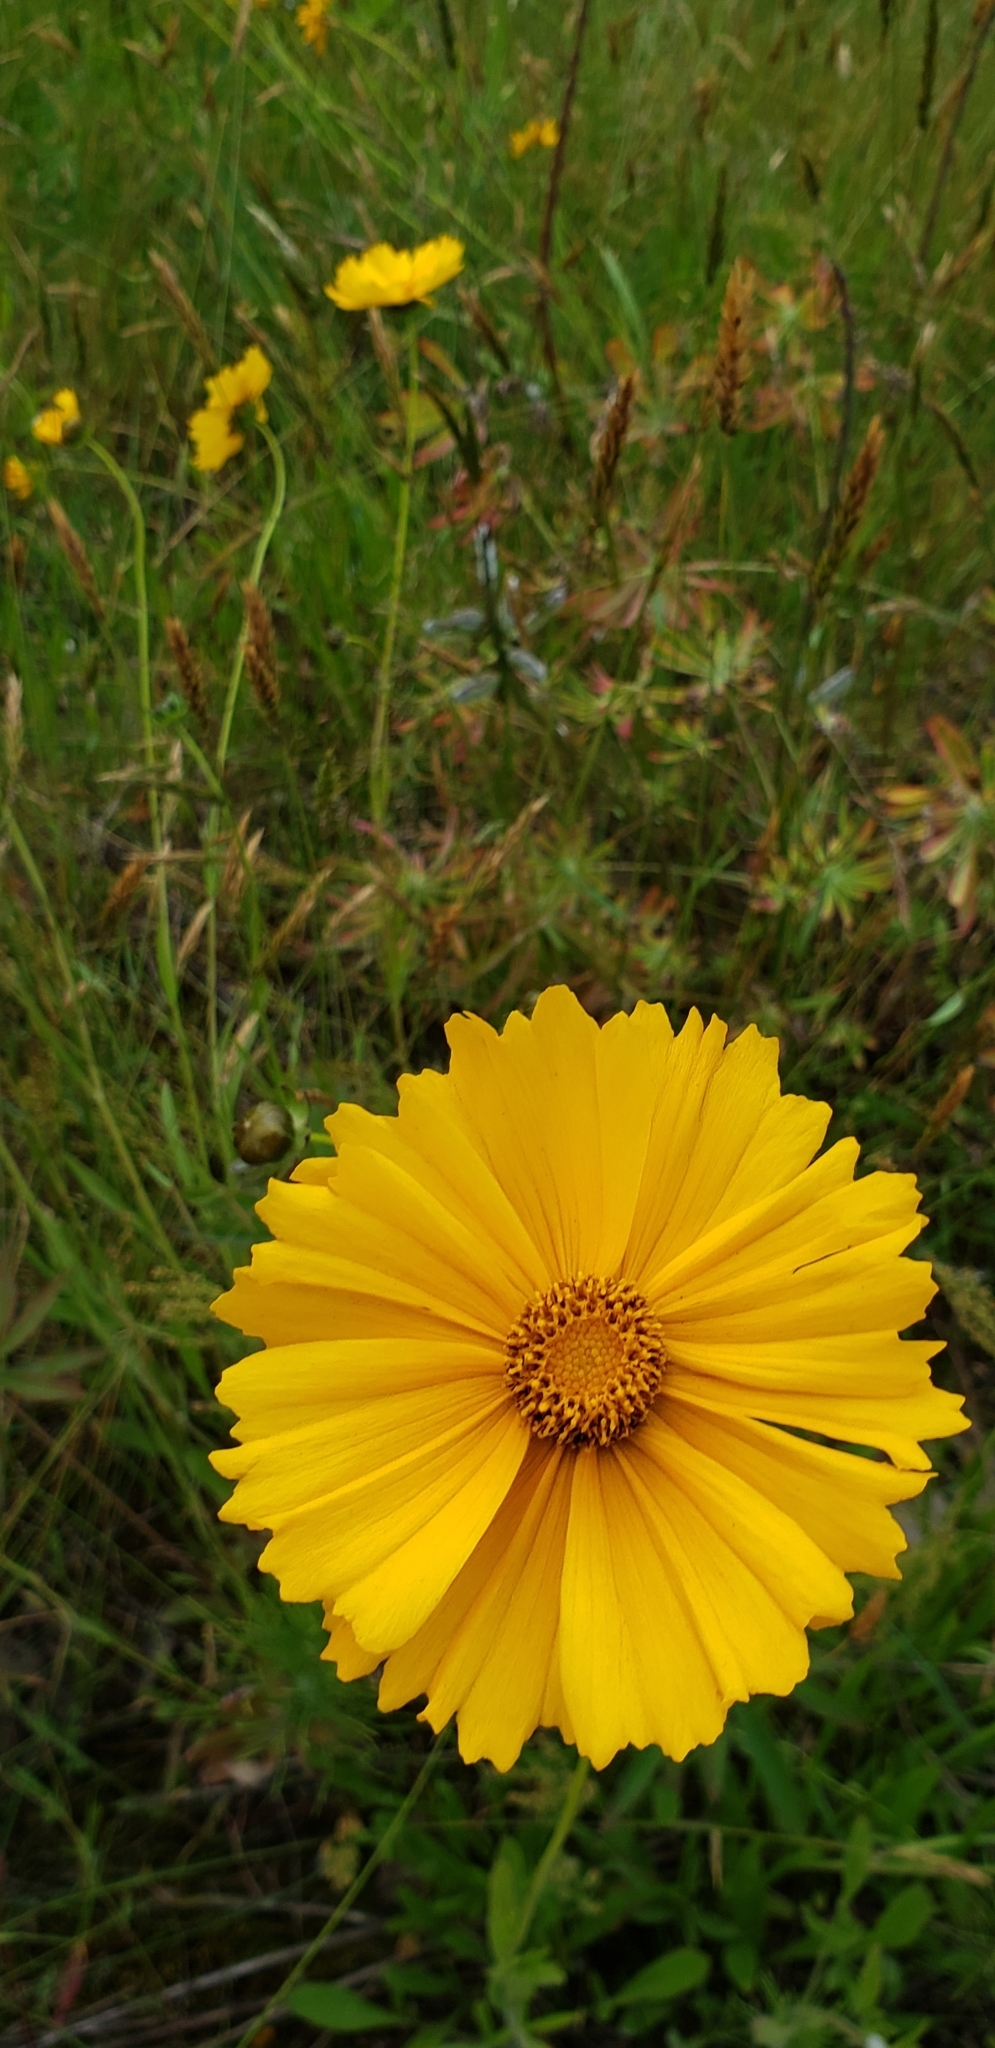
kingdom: Plantae
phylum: Tracheophyta
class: Magnoliopsida
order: Asterales
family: Asteraceae
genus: Coreopsis
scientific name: Coreopsis lanceolata
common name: Garden coreopsis
